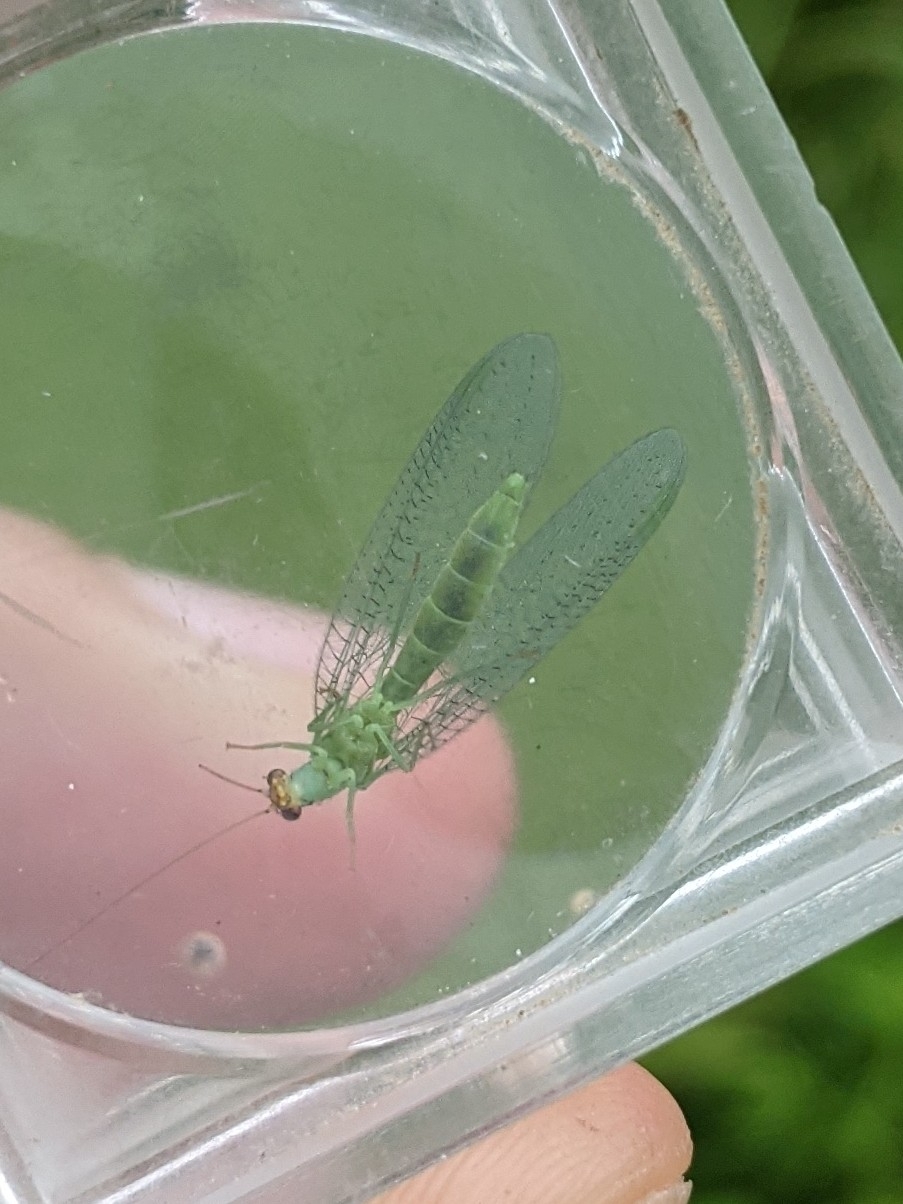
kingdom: Animalia
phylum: Arthropoda
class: Insecta
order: Neuroptera
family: Chrysopidae
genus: Chrysopa
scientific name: Chrysopa oculata
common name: Golden-eyed lacewing
